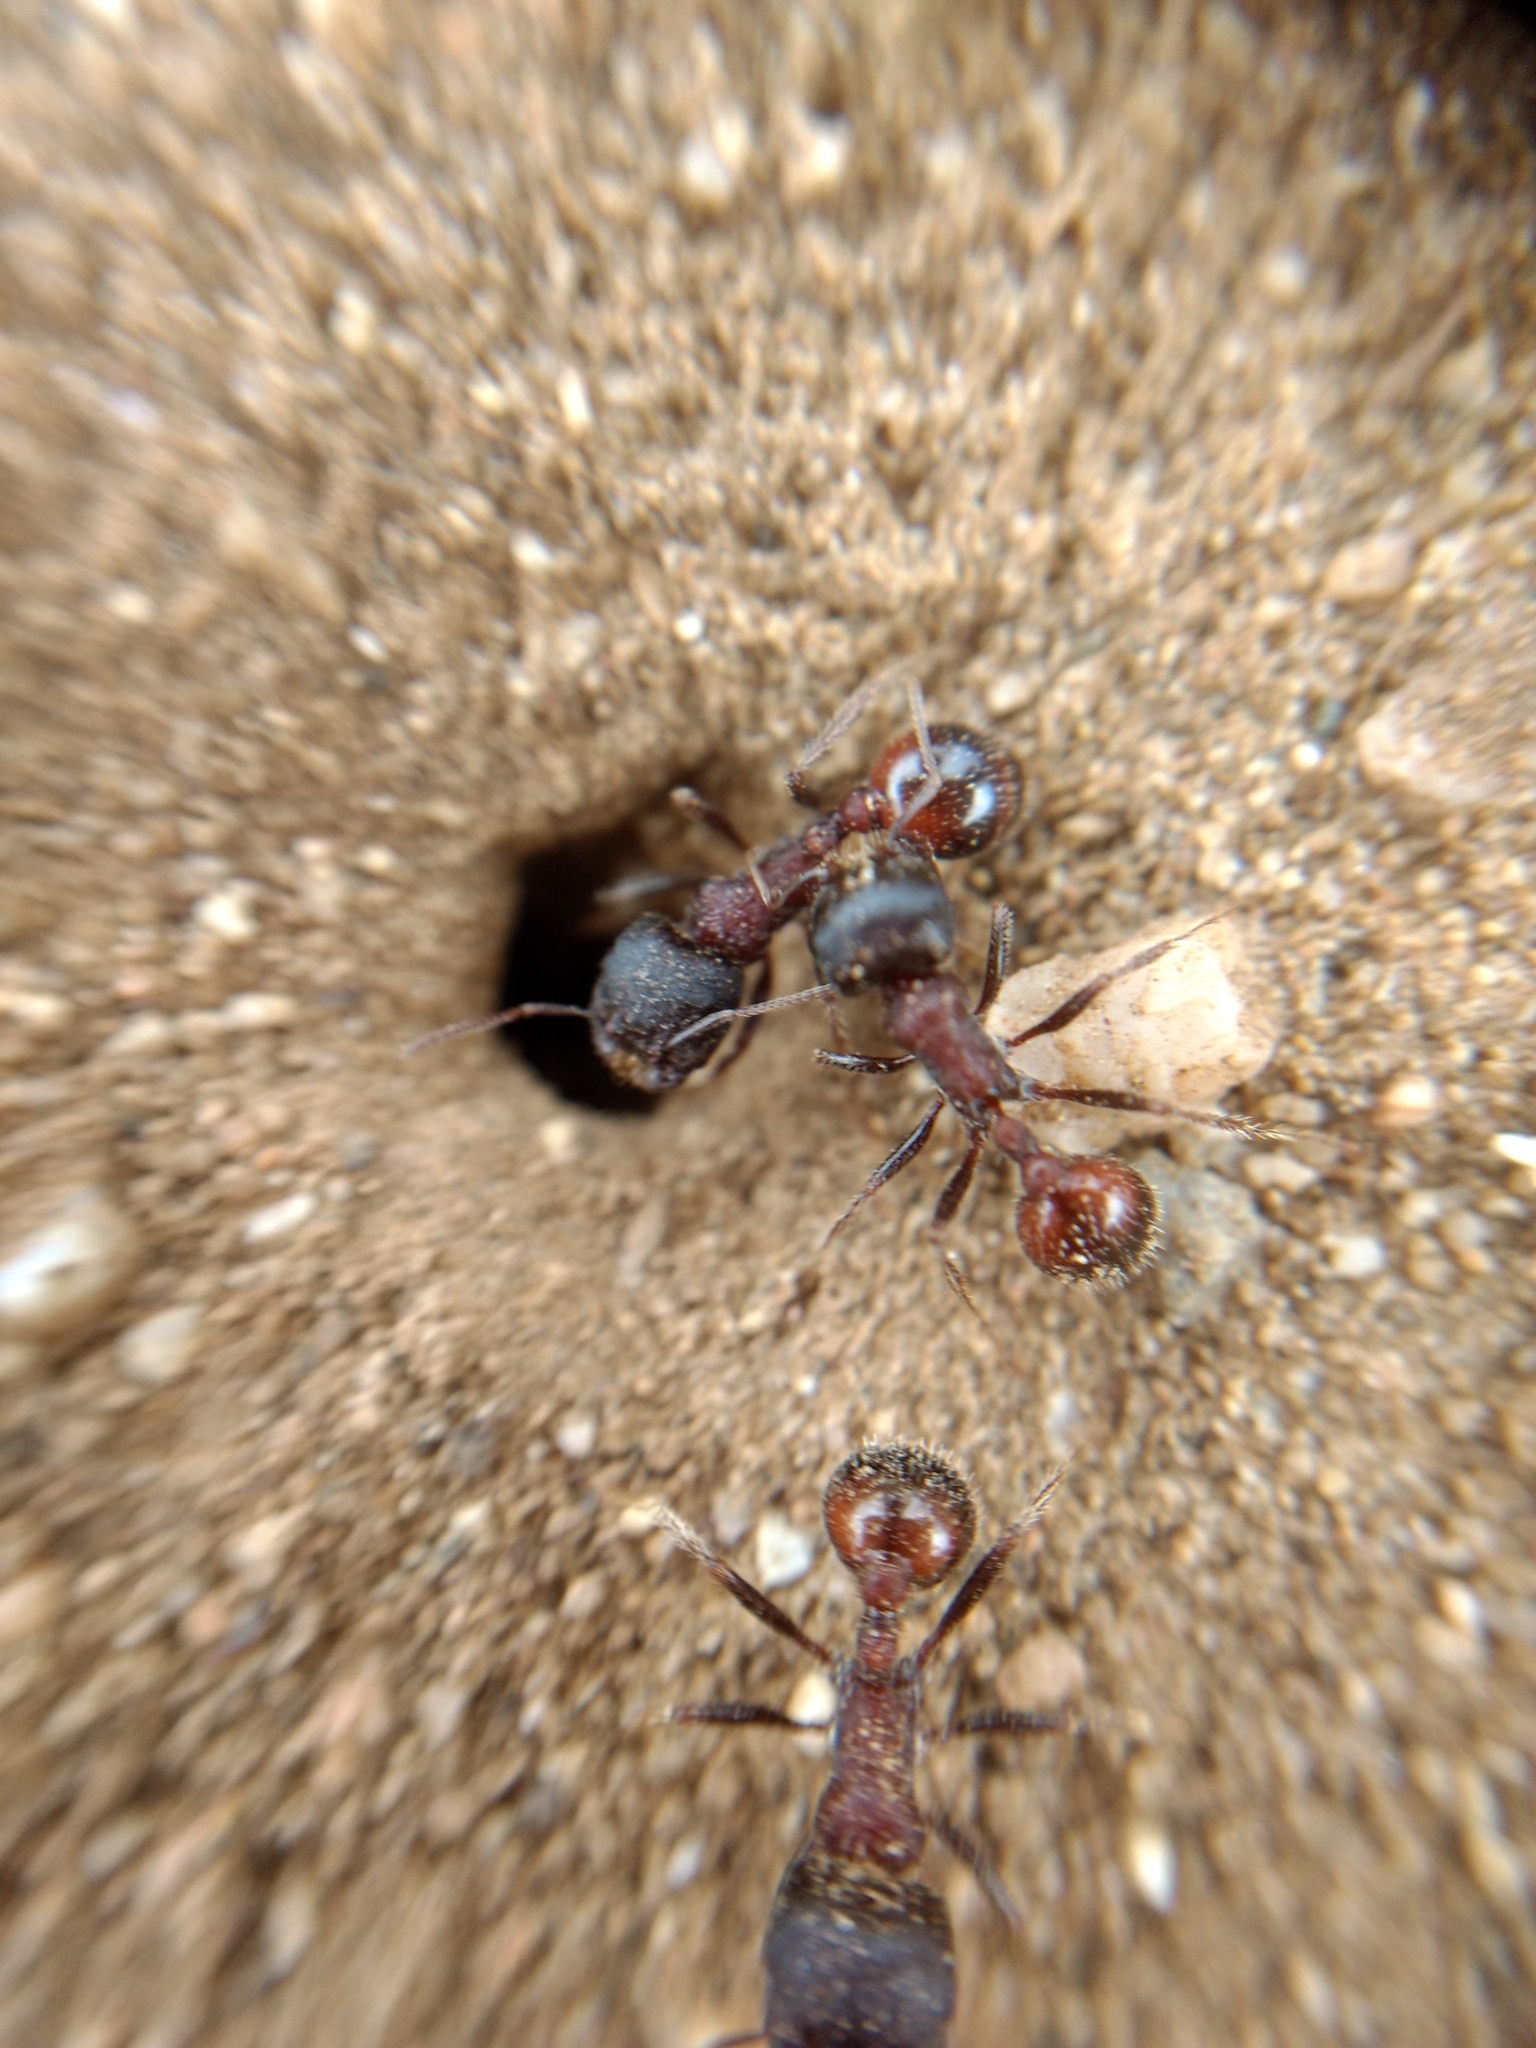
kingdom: Animalia
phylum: Arthropoda
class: Insecta
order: Hymenoptera
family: Formicidae
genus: Pogonomyrmex
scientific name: Pogonomyrmex rugosus
